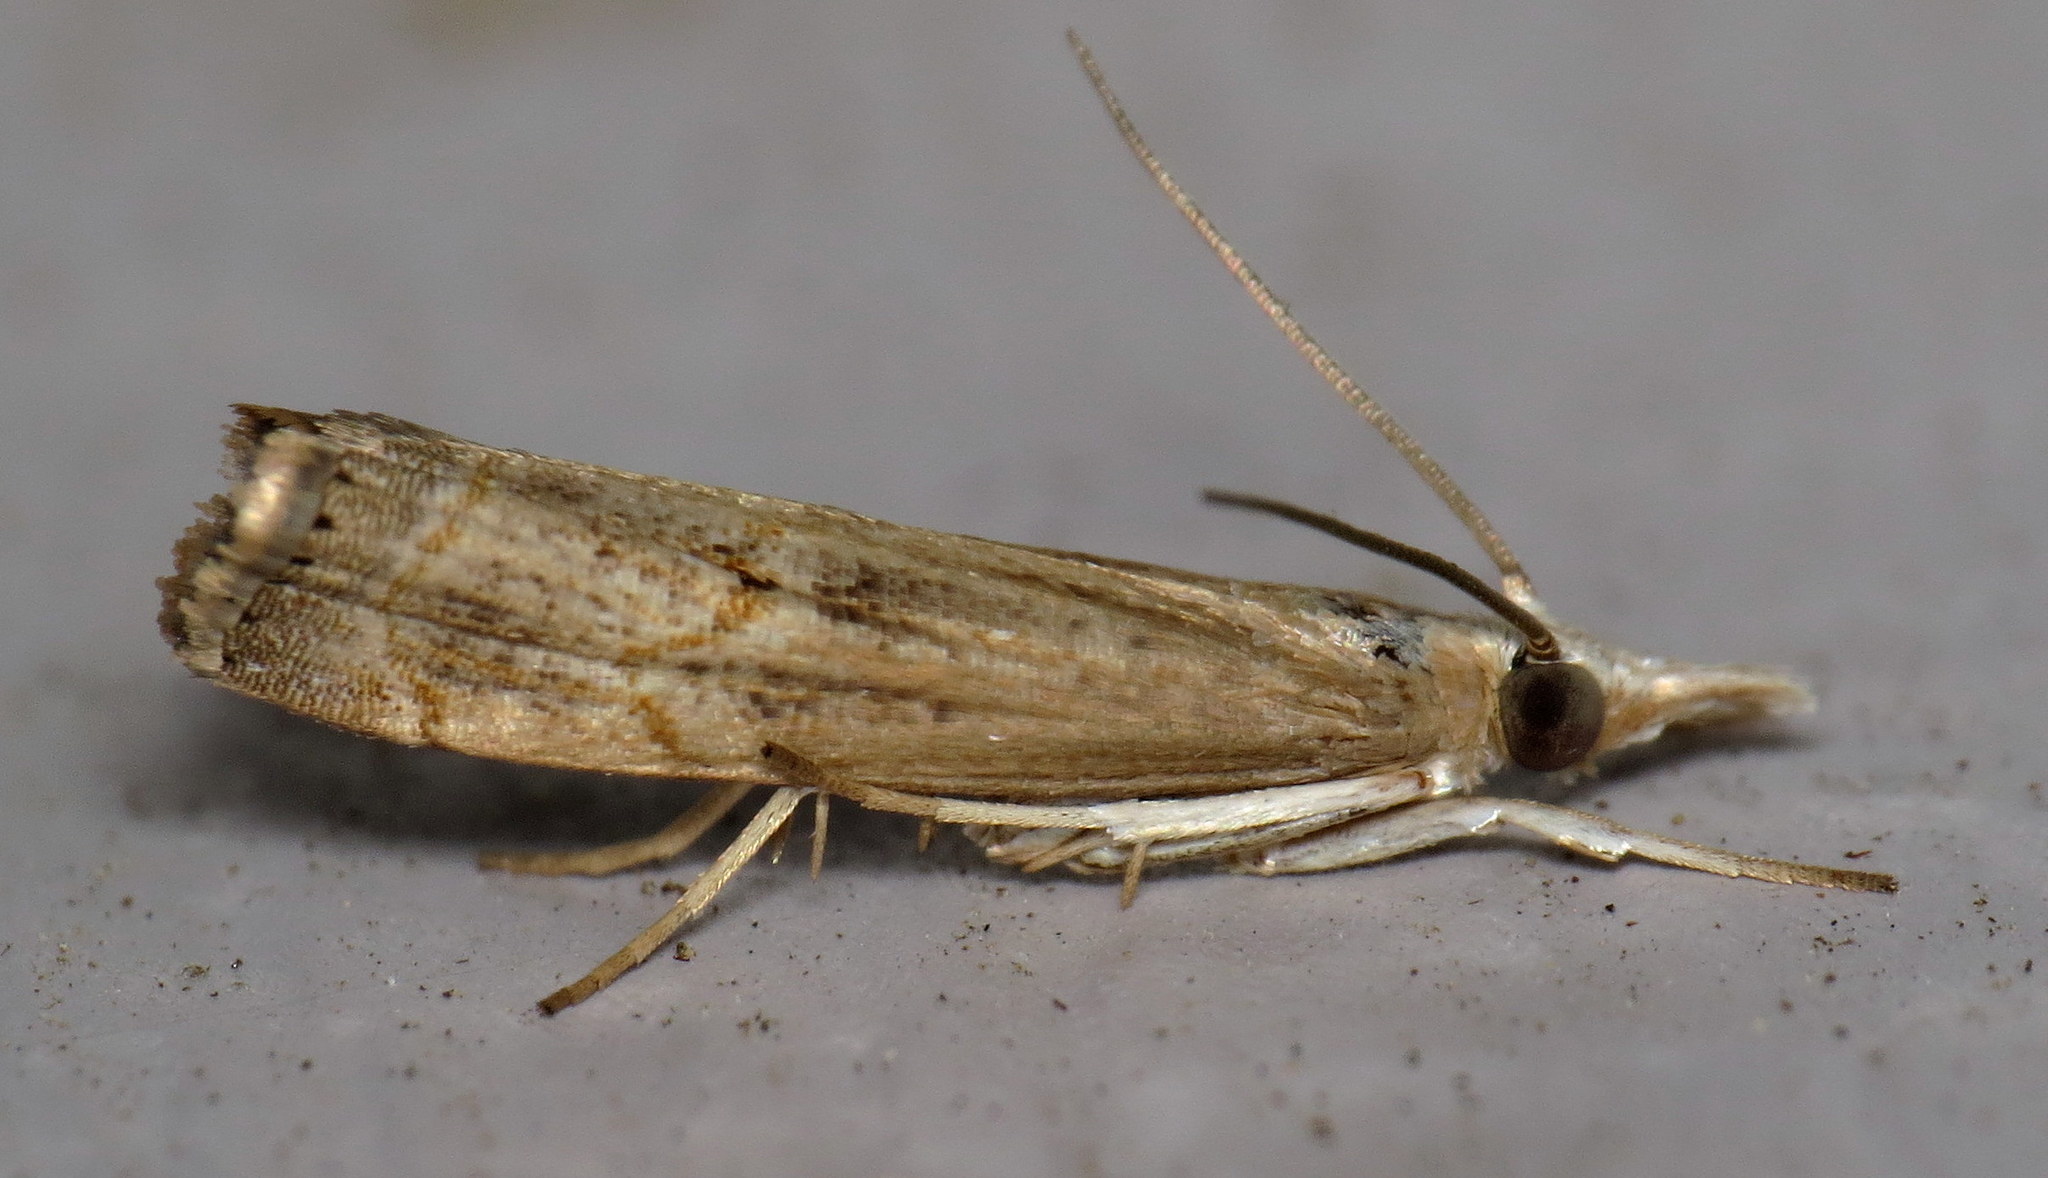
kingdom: Animalia
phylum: Arthropoda
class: Insecta
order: Lepidoptera
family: Crambidae
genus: Parapediasia
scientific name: Parapediasia teterellus
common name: Bluegrass webworm moth
